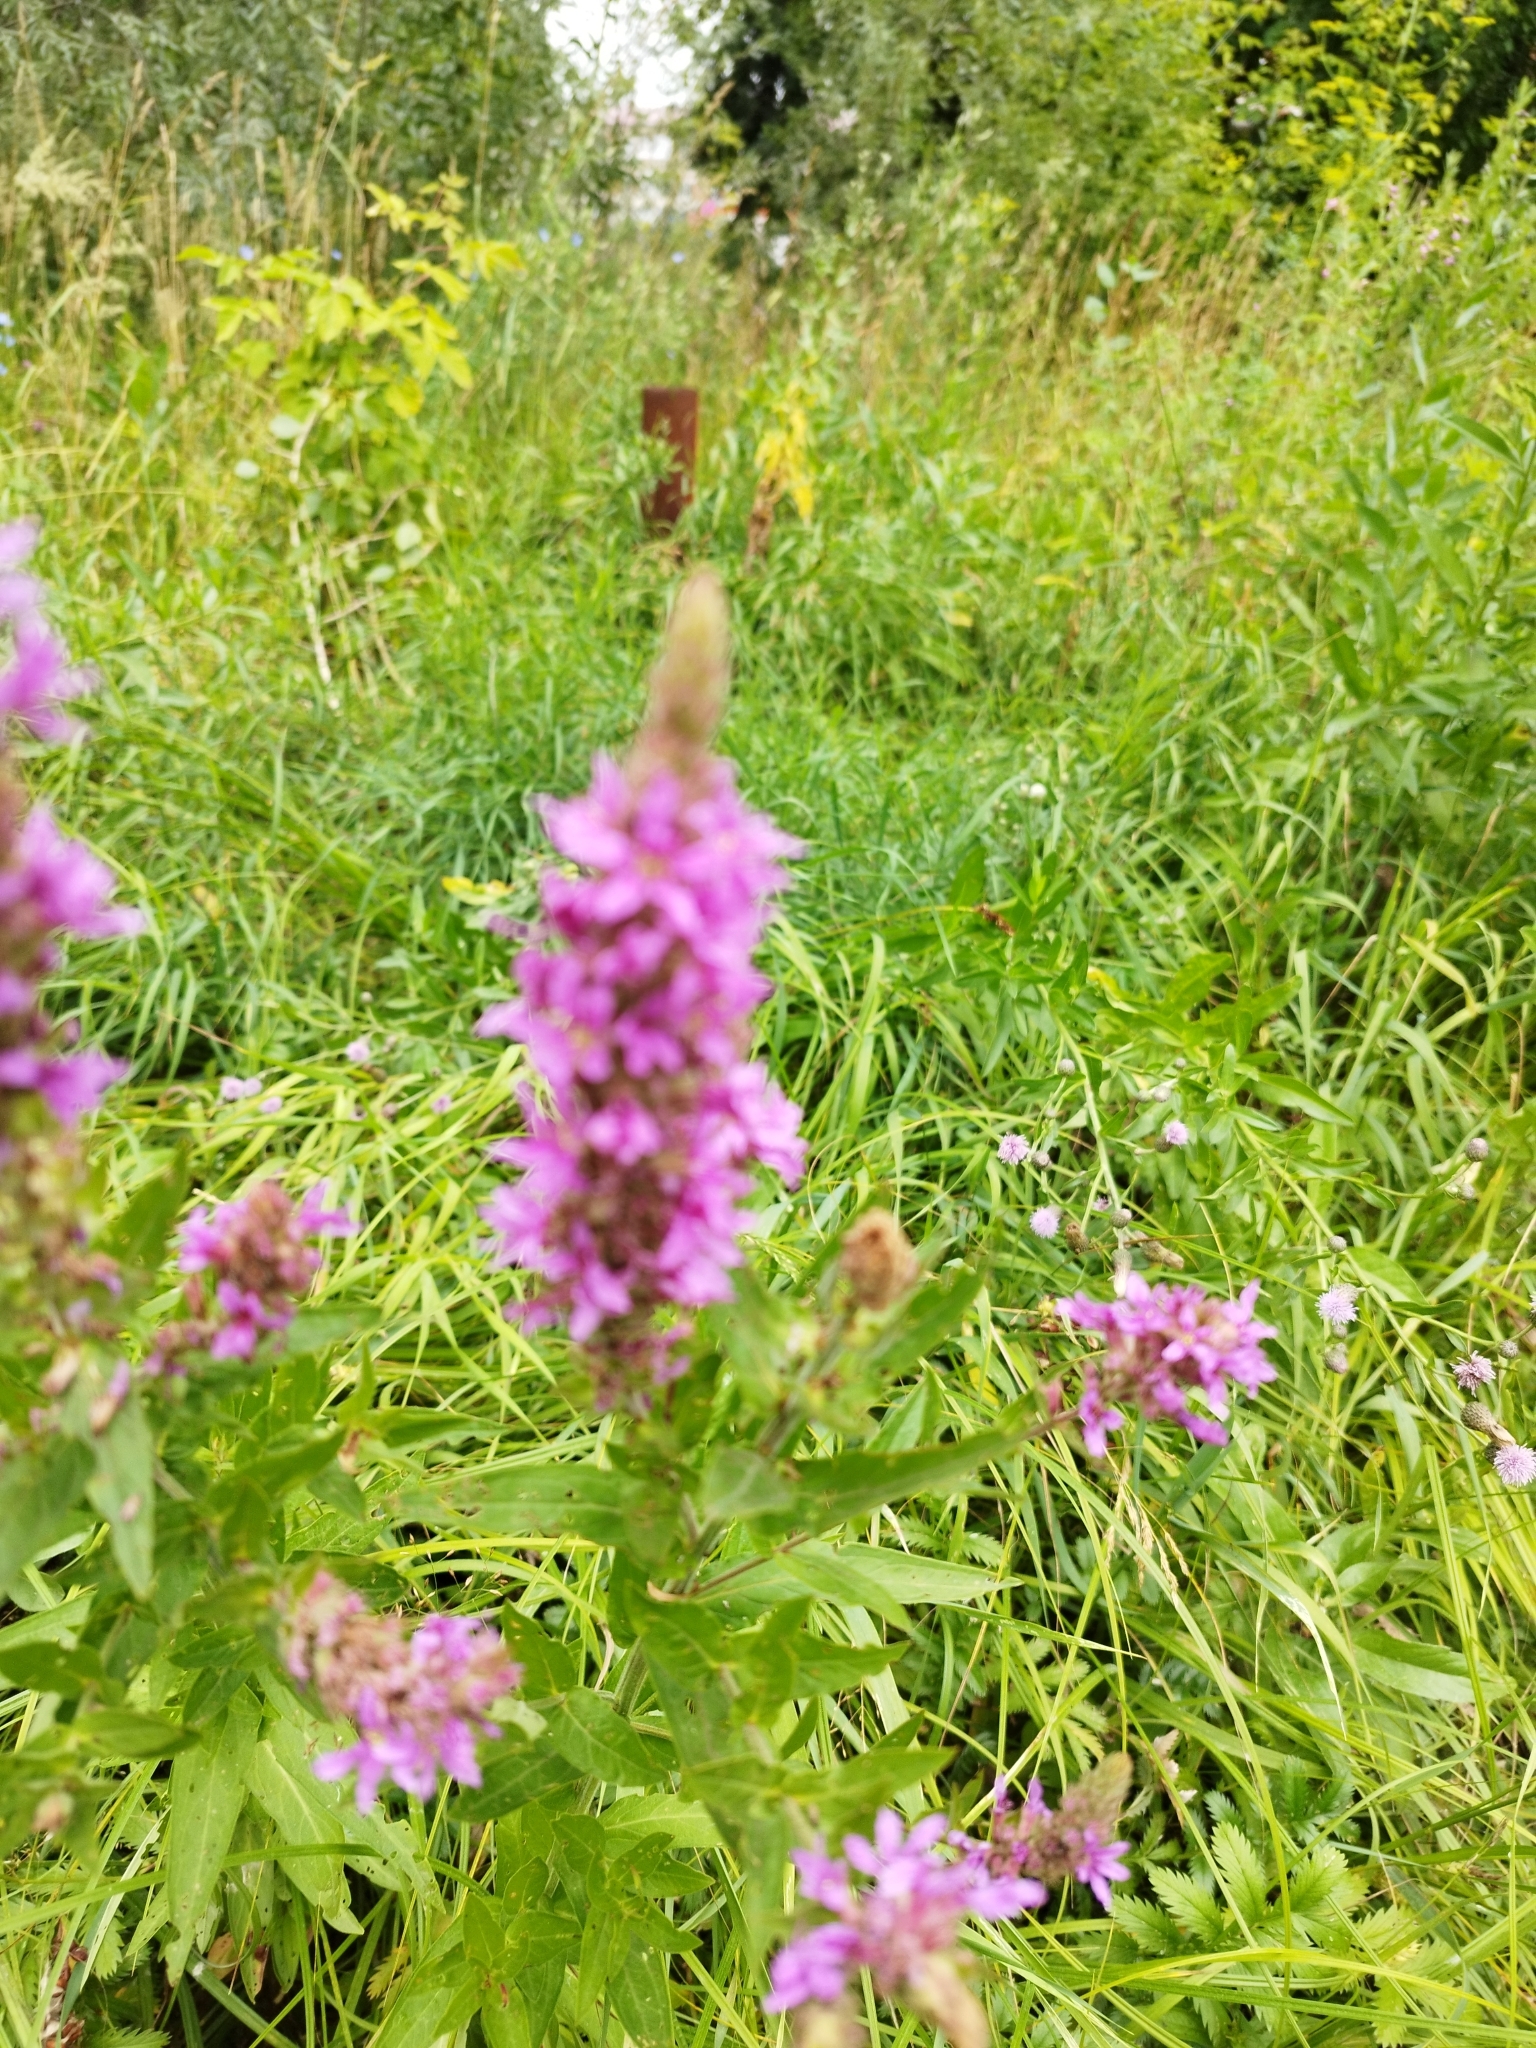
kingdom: Plantae
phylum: Tracheophyta
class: Magnoliopsida
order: Myrtales
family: Lythraceae
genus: Lythrum
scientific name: Lythrum salicaria
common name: Purple loosestrife
